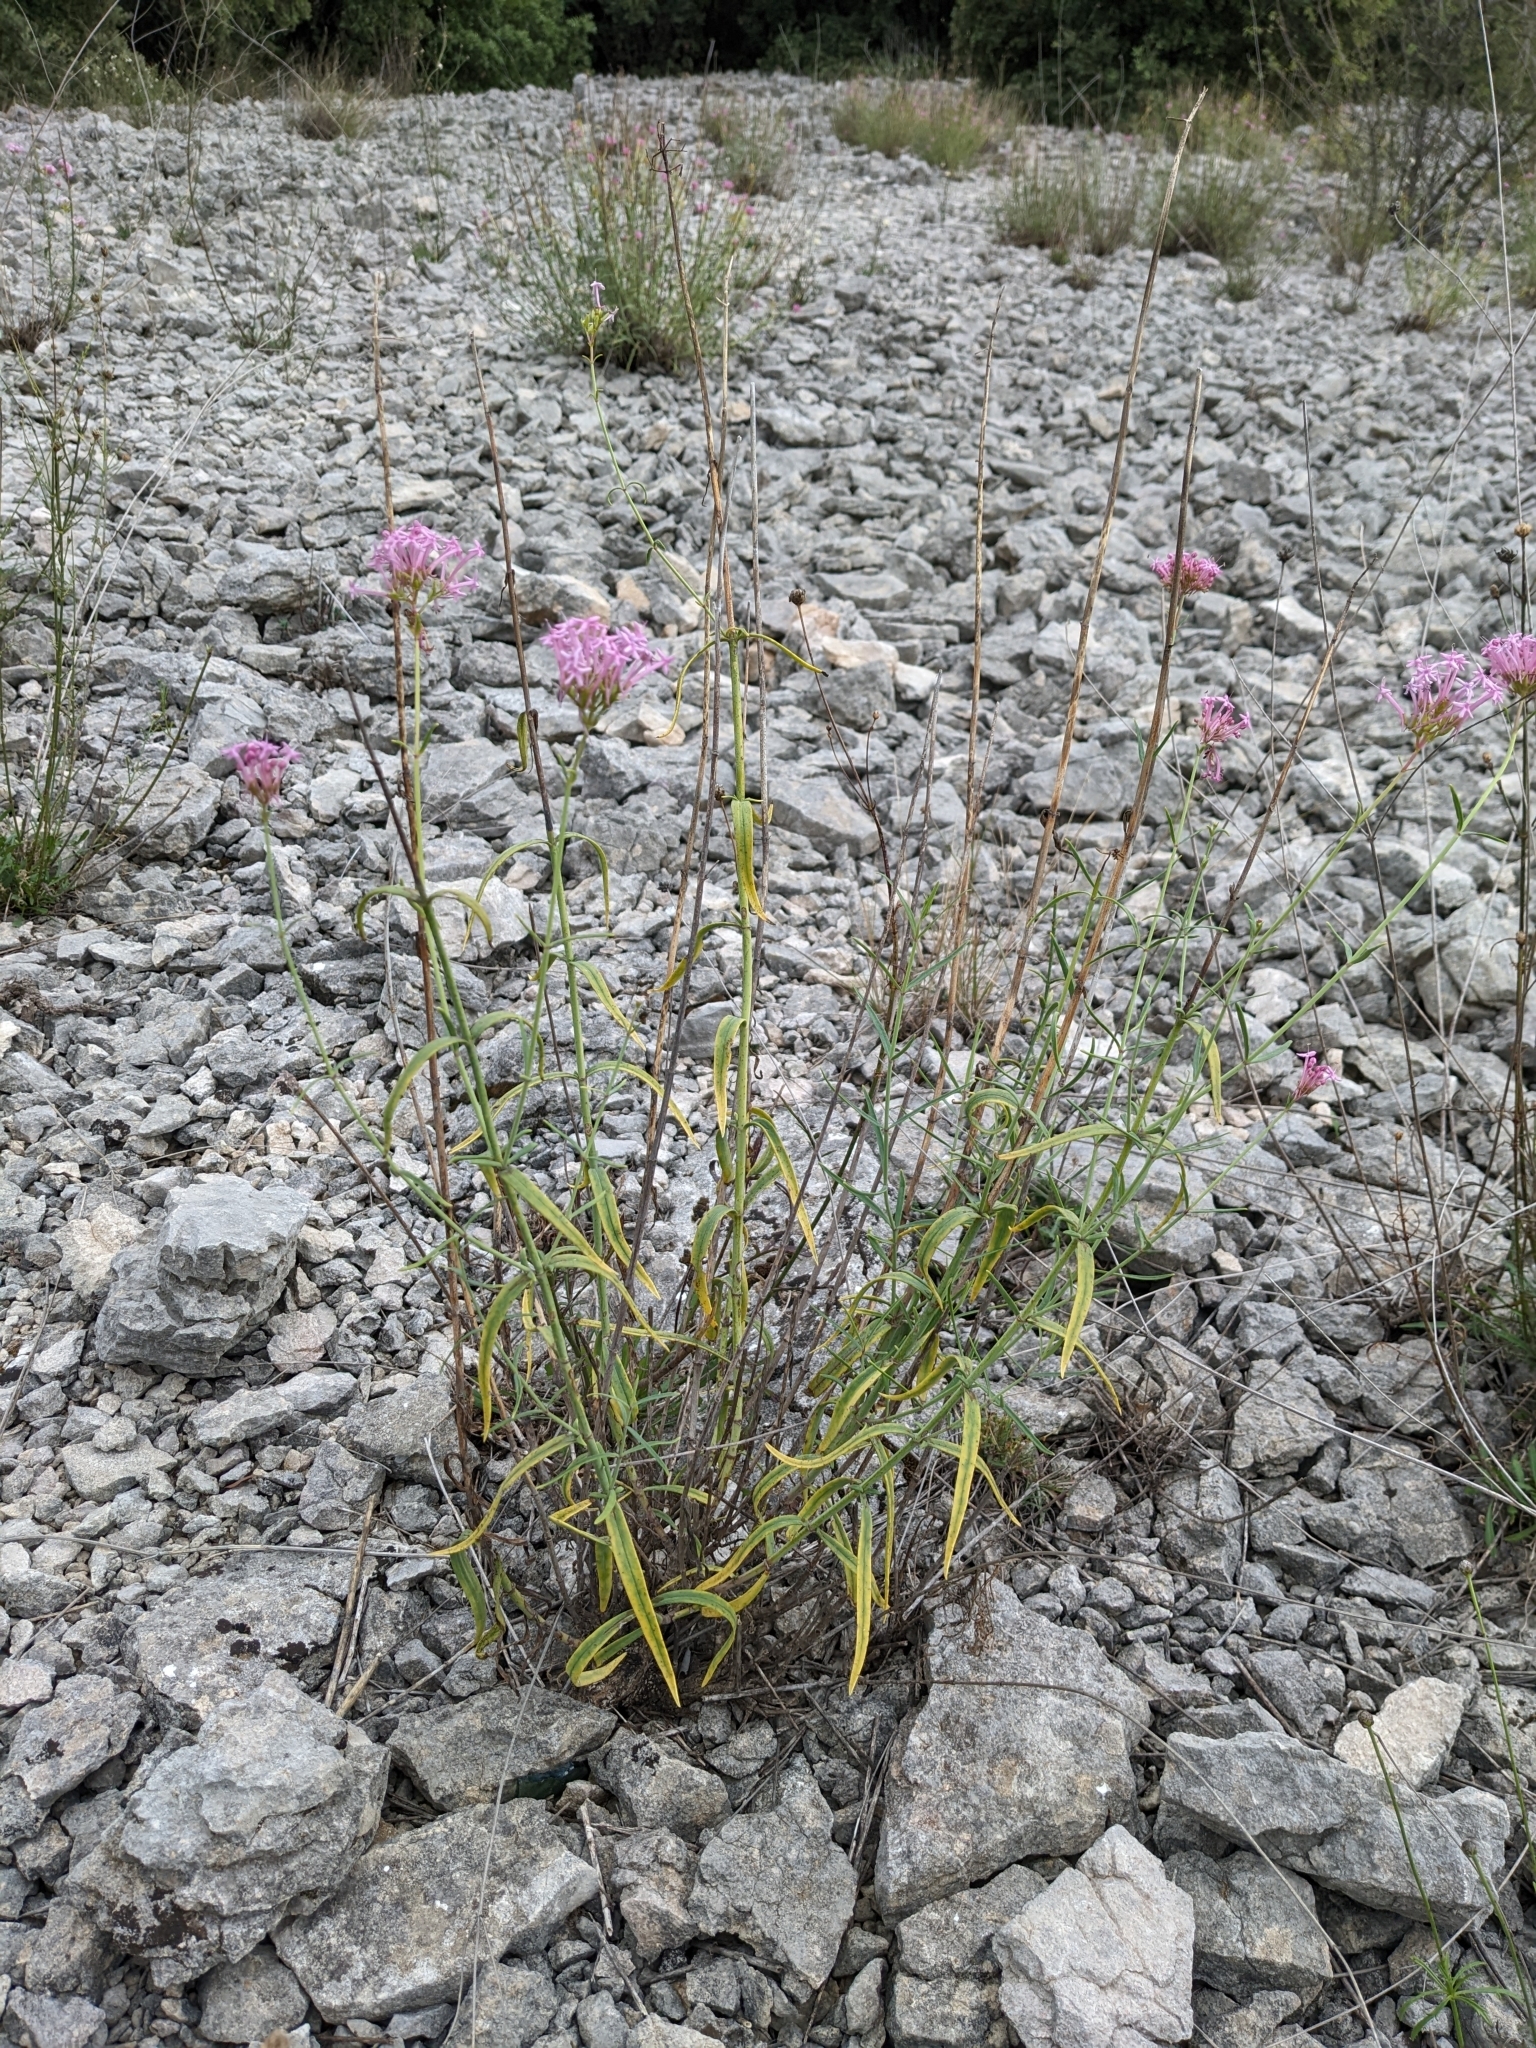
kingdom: Plantae
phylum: Tracheophyta
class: Magnoliopsida
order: Dipsacales
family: Caprifoliaceae
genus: Centranthus
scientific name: Centranthus lecoqii
